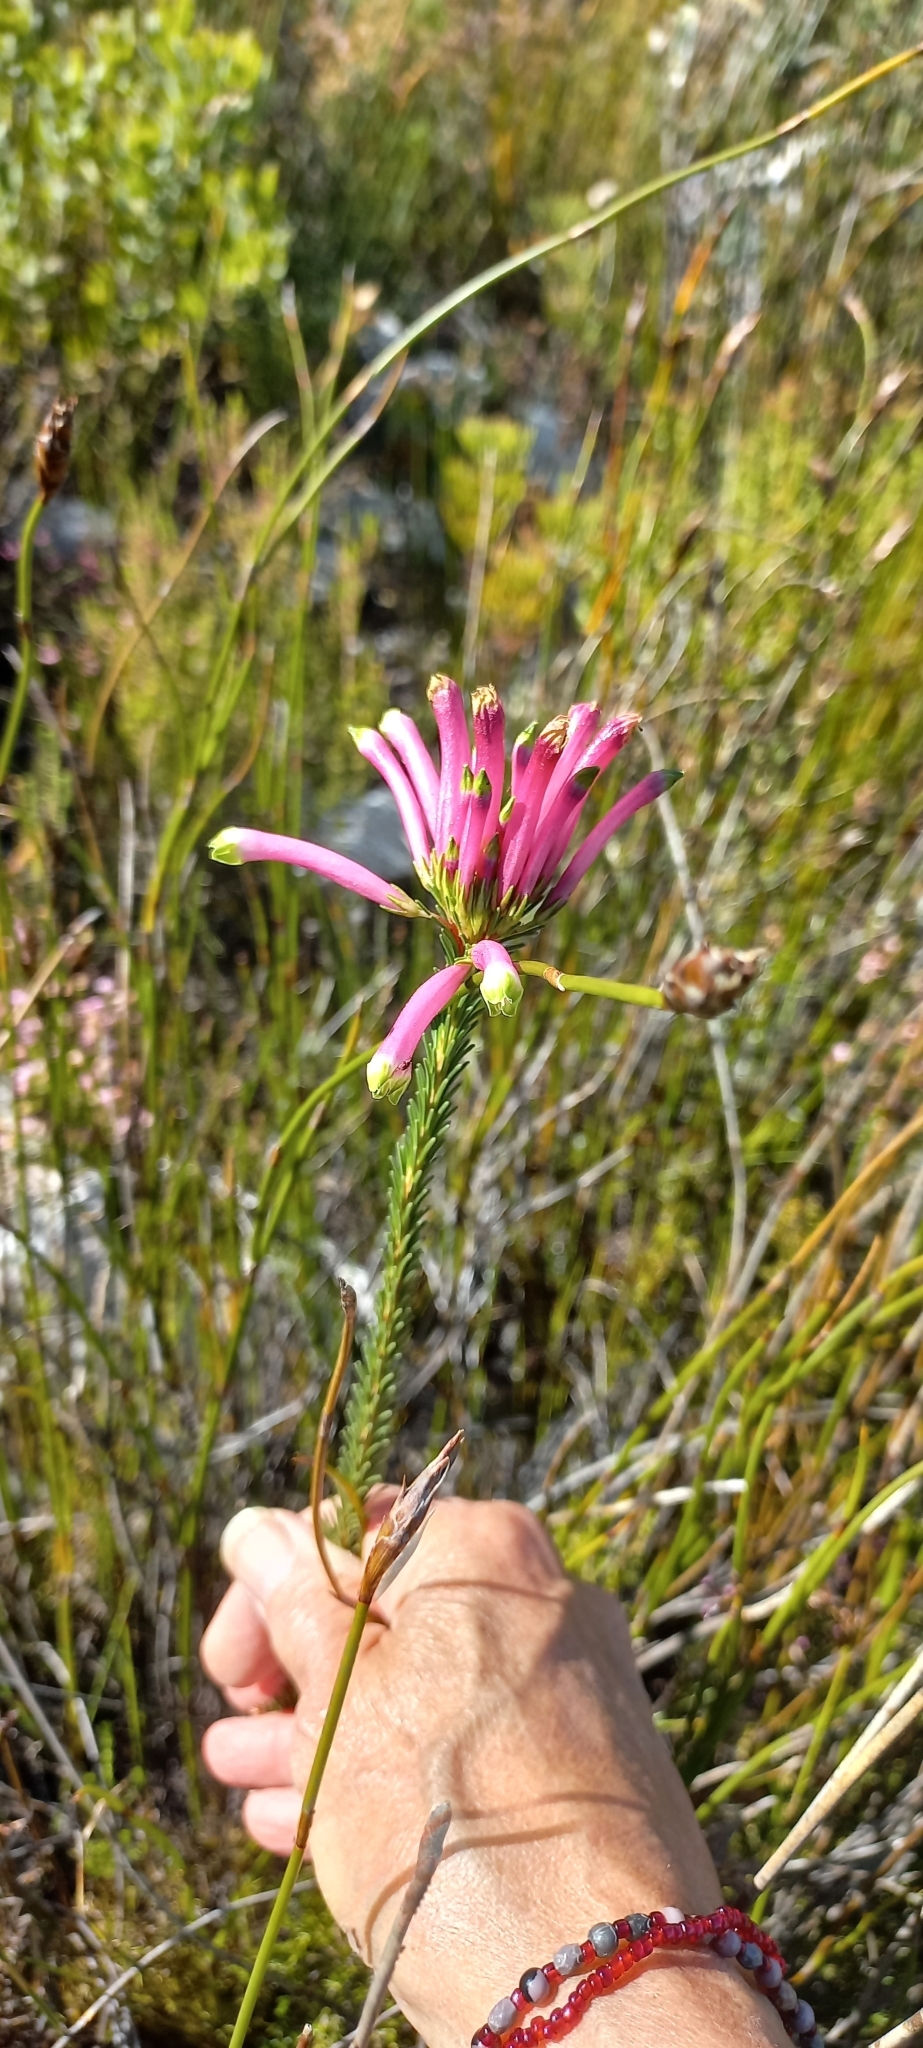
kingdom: Plantae
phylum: Tracheophyta
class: Magnoliopsida
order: Ericales
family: Ericaceae
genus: Erica
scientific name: Erica fascicularis
